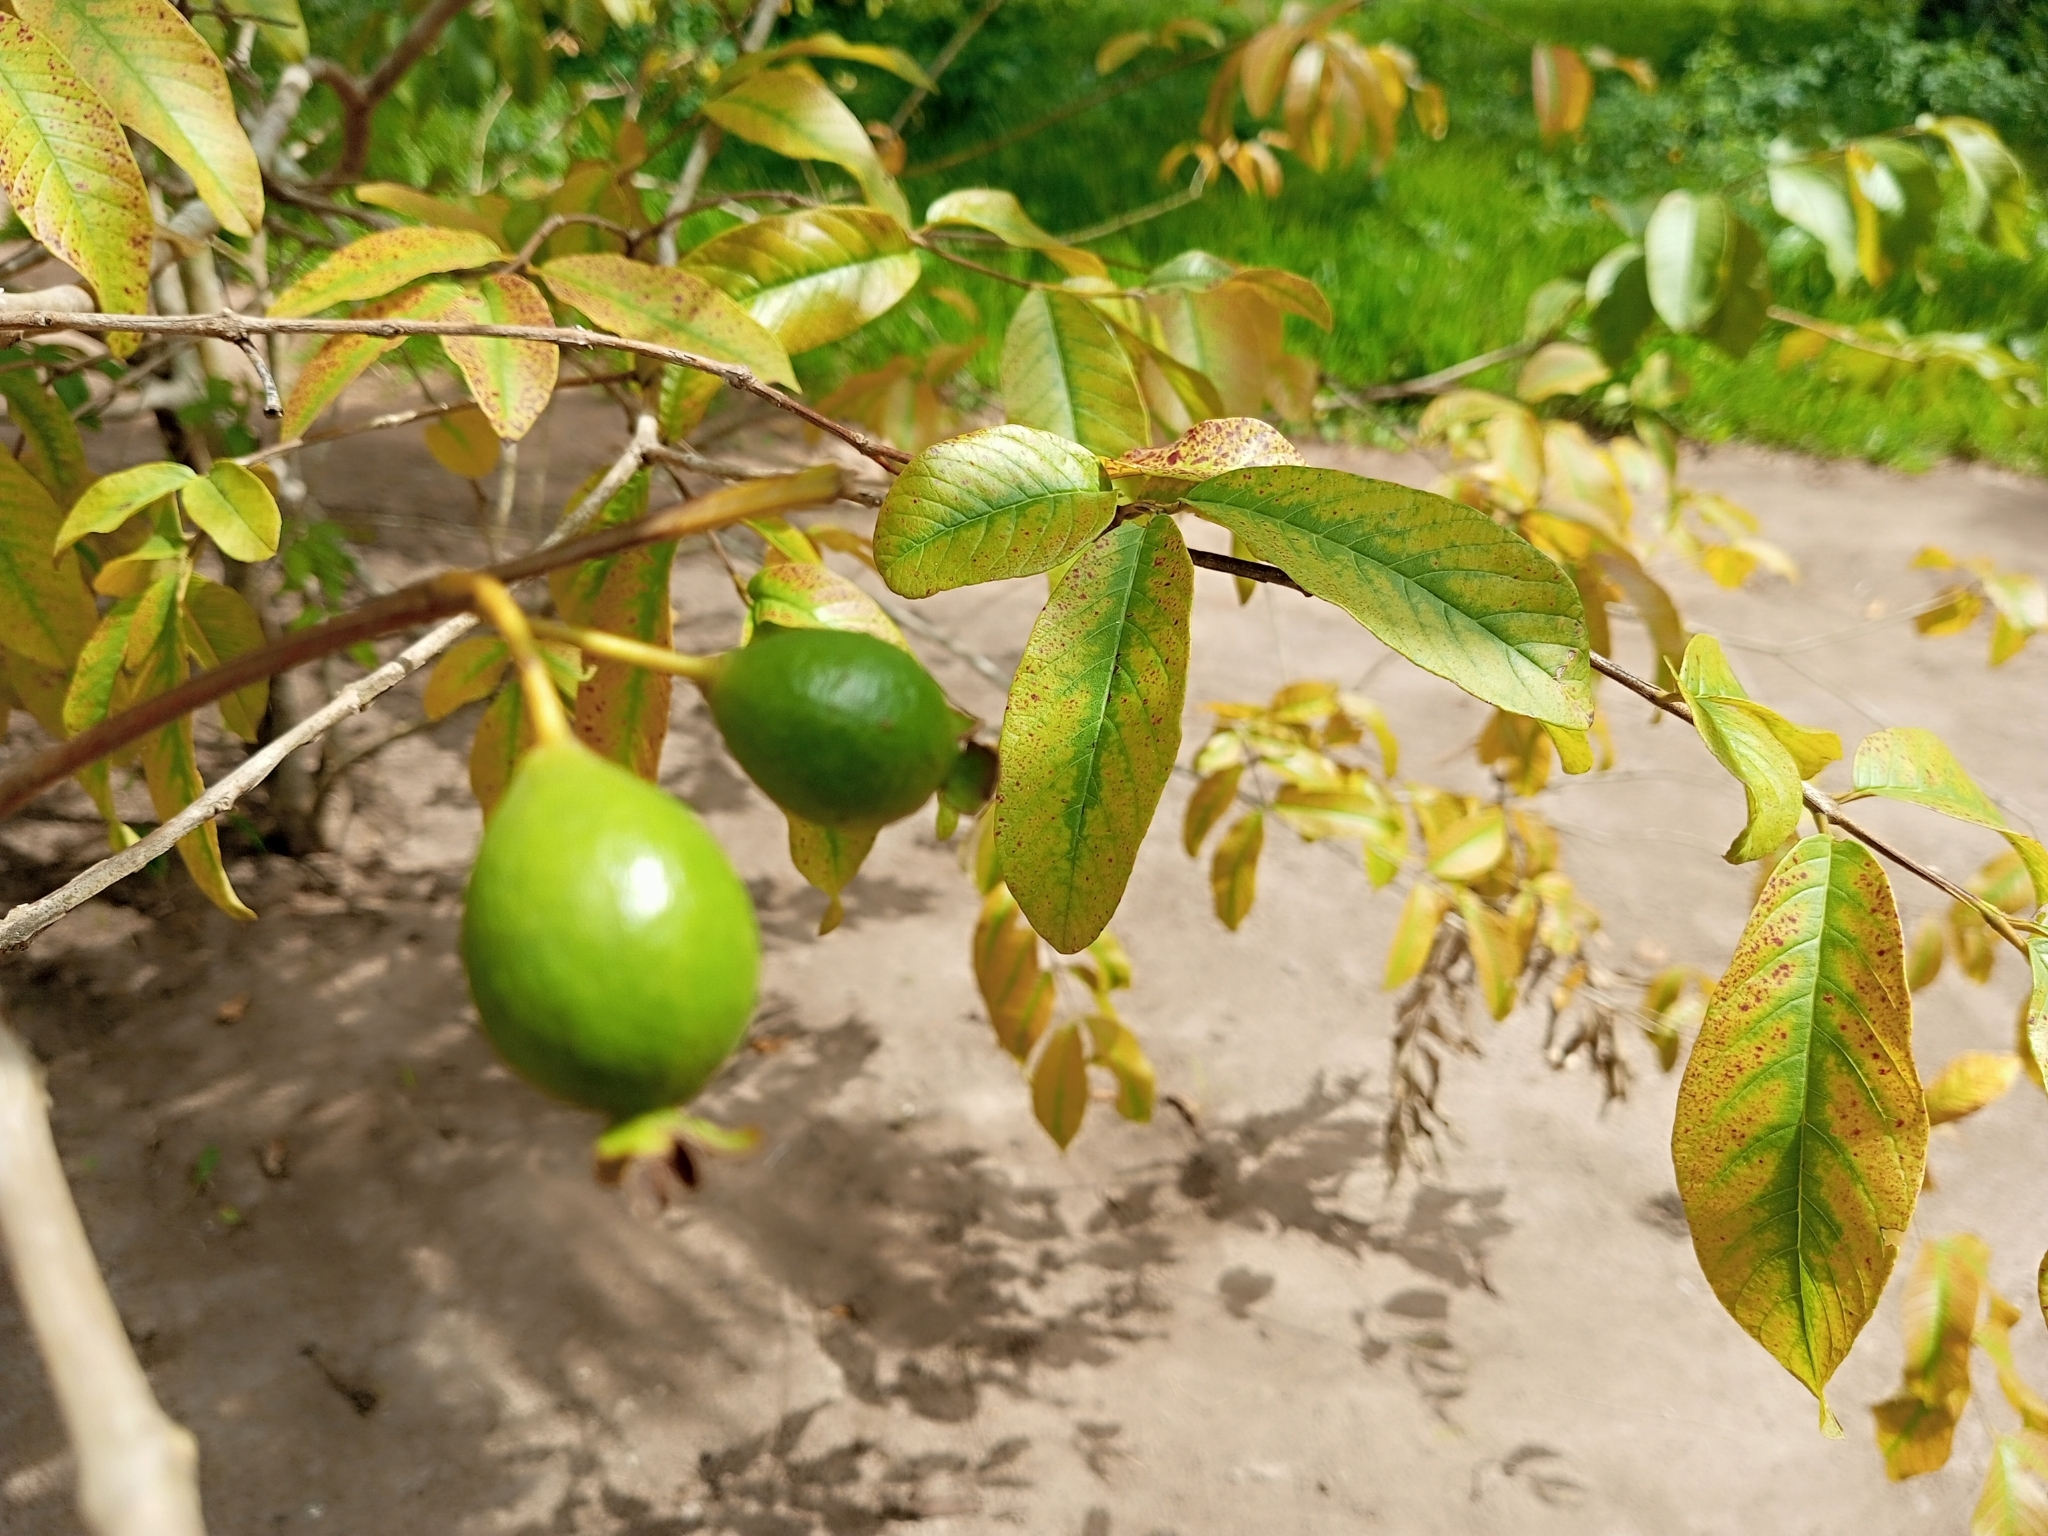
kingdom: Plantae
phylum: Tracheophyta
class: Magnoliopsida
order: Myrtales
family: Myrtaceae
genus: Psidium
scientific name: Psidium guajava
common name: Guava
